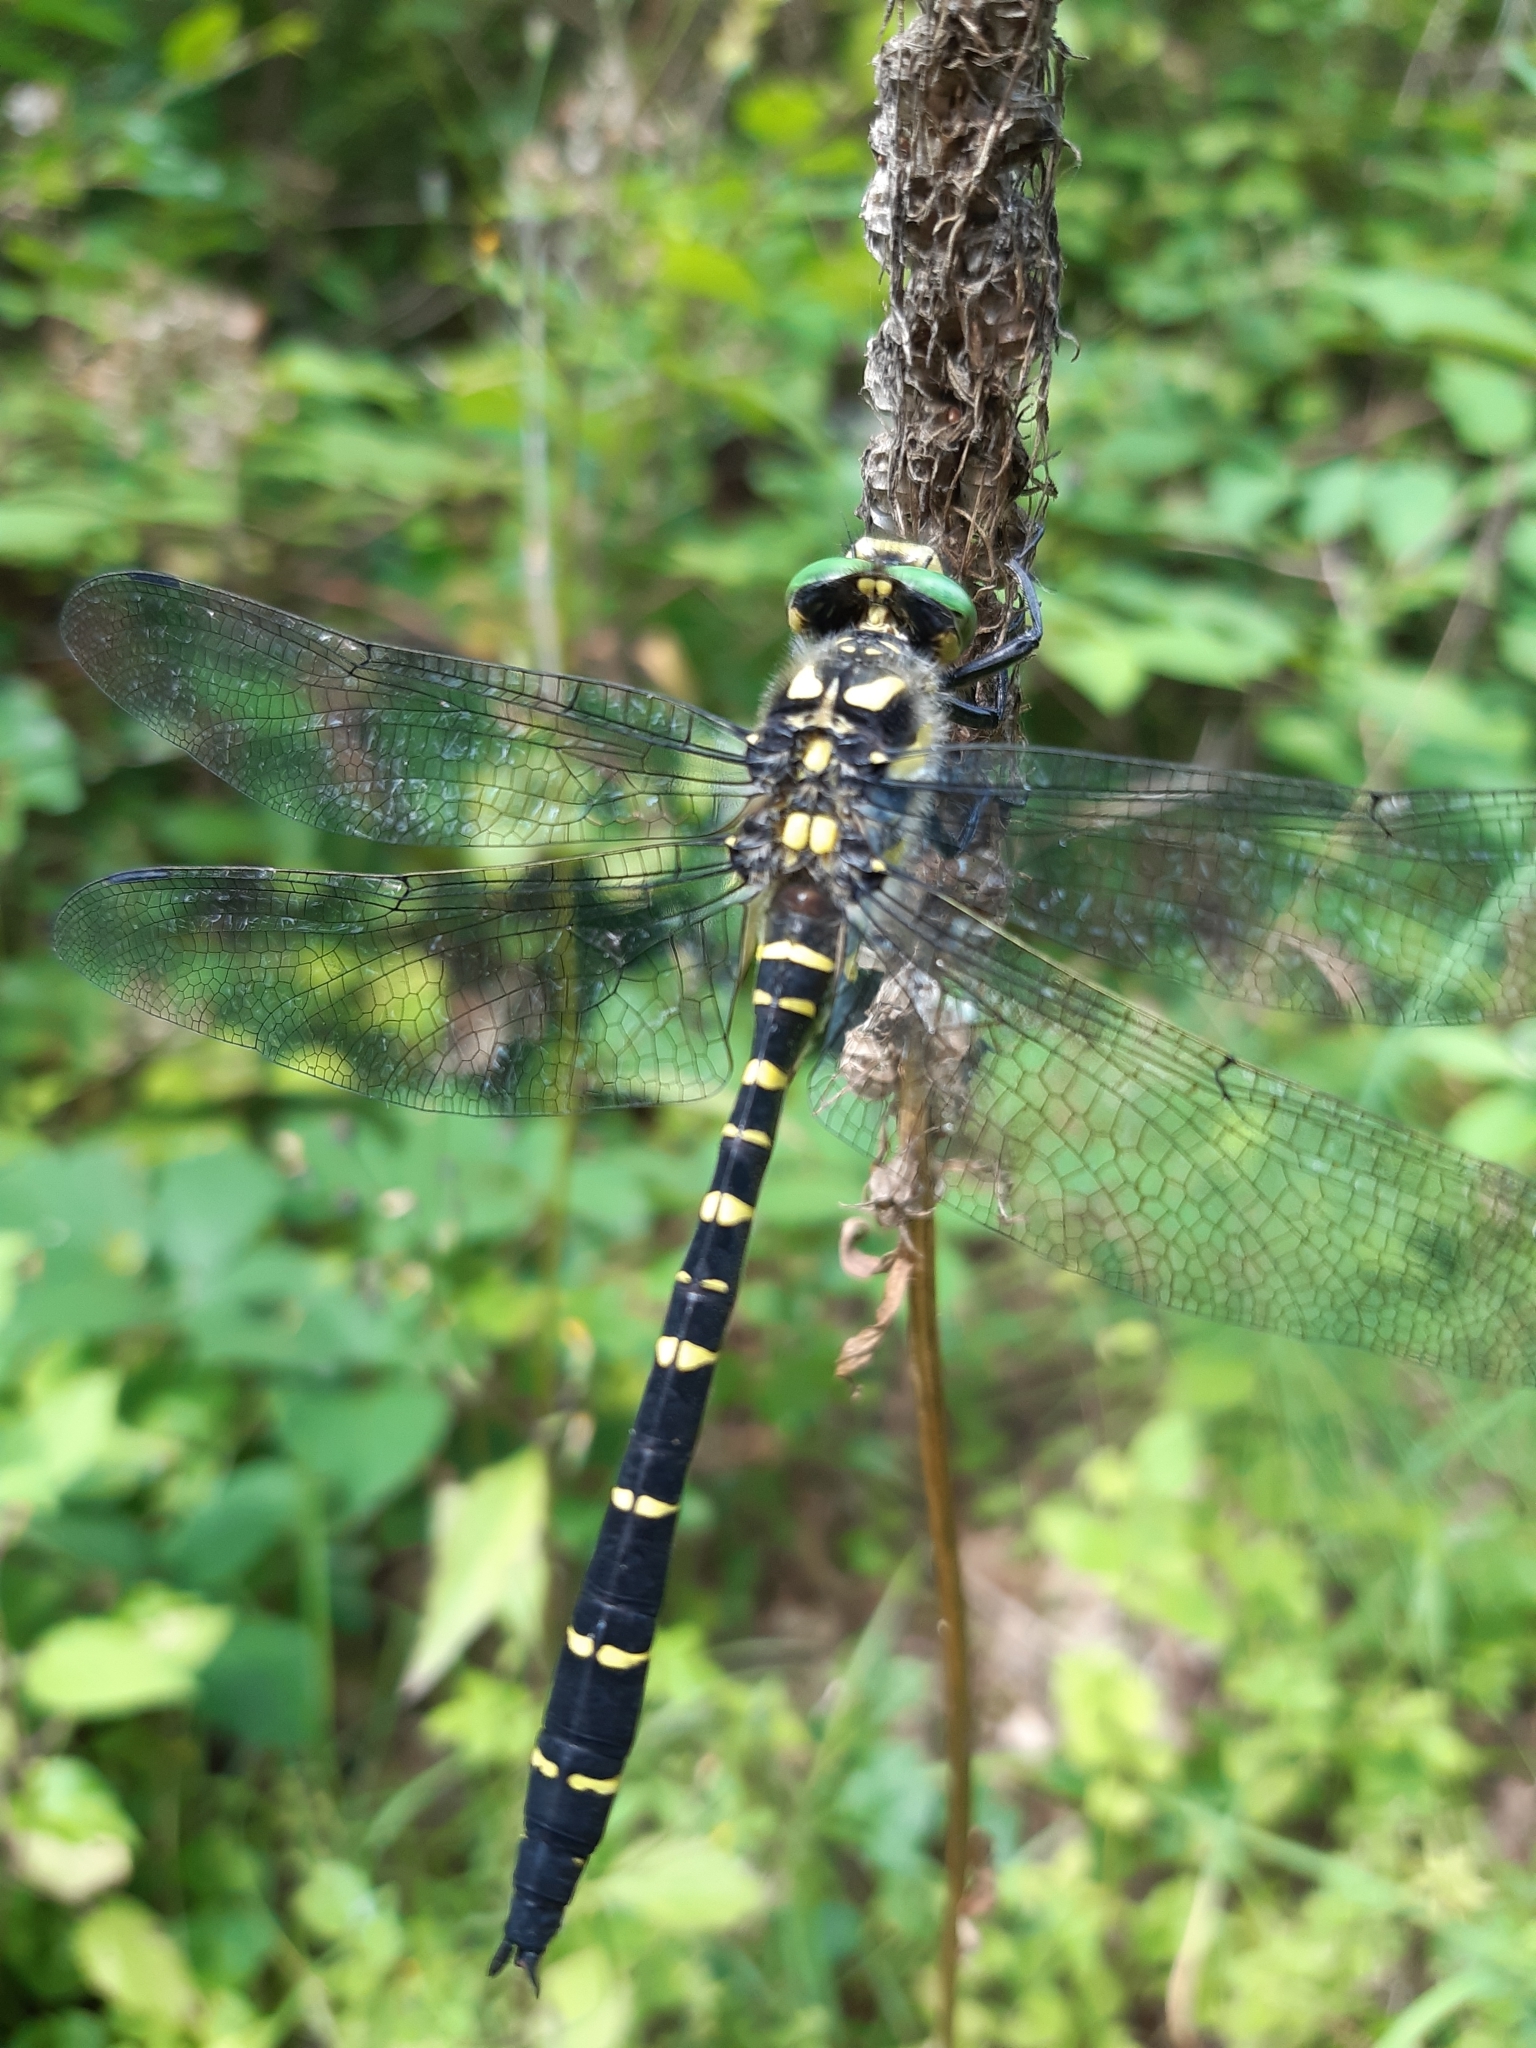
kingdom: Animalia
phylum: Arthropoda
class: Insecta
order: Odonata
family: Cordulegastridae
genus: Cordulegaster
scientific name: Cordulegaster bidentata
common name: Sombre goldenring
